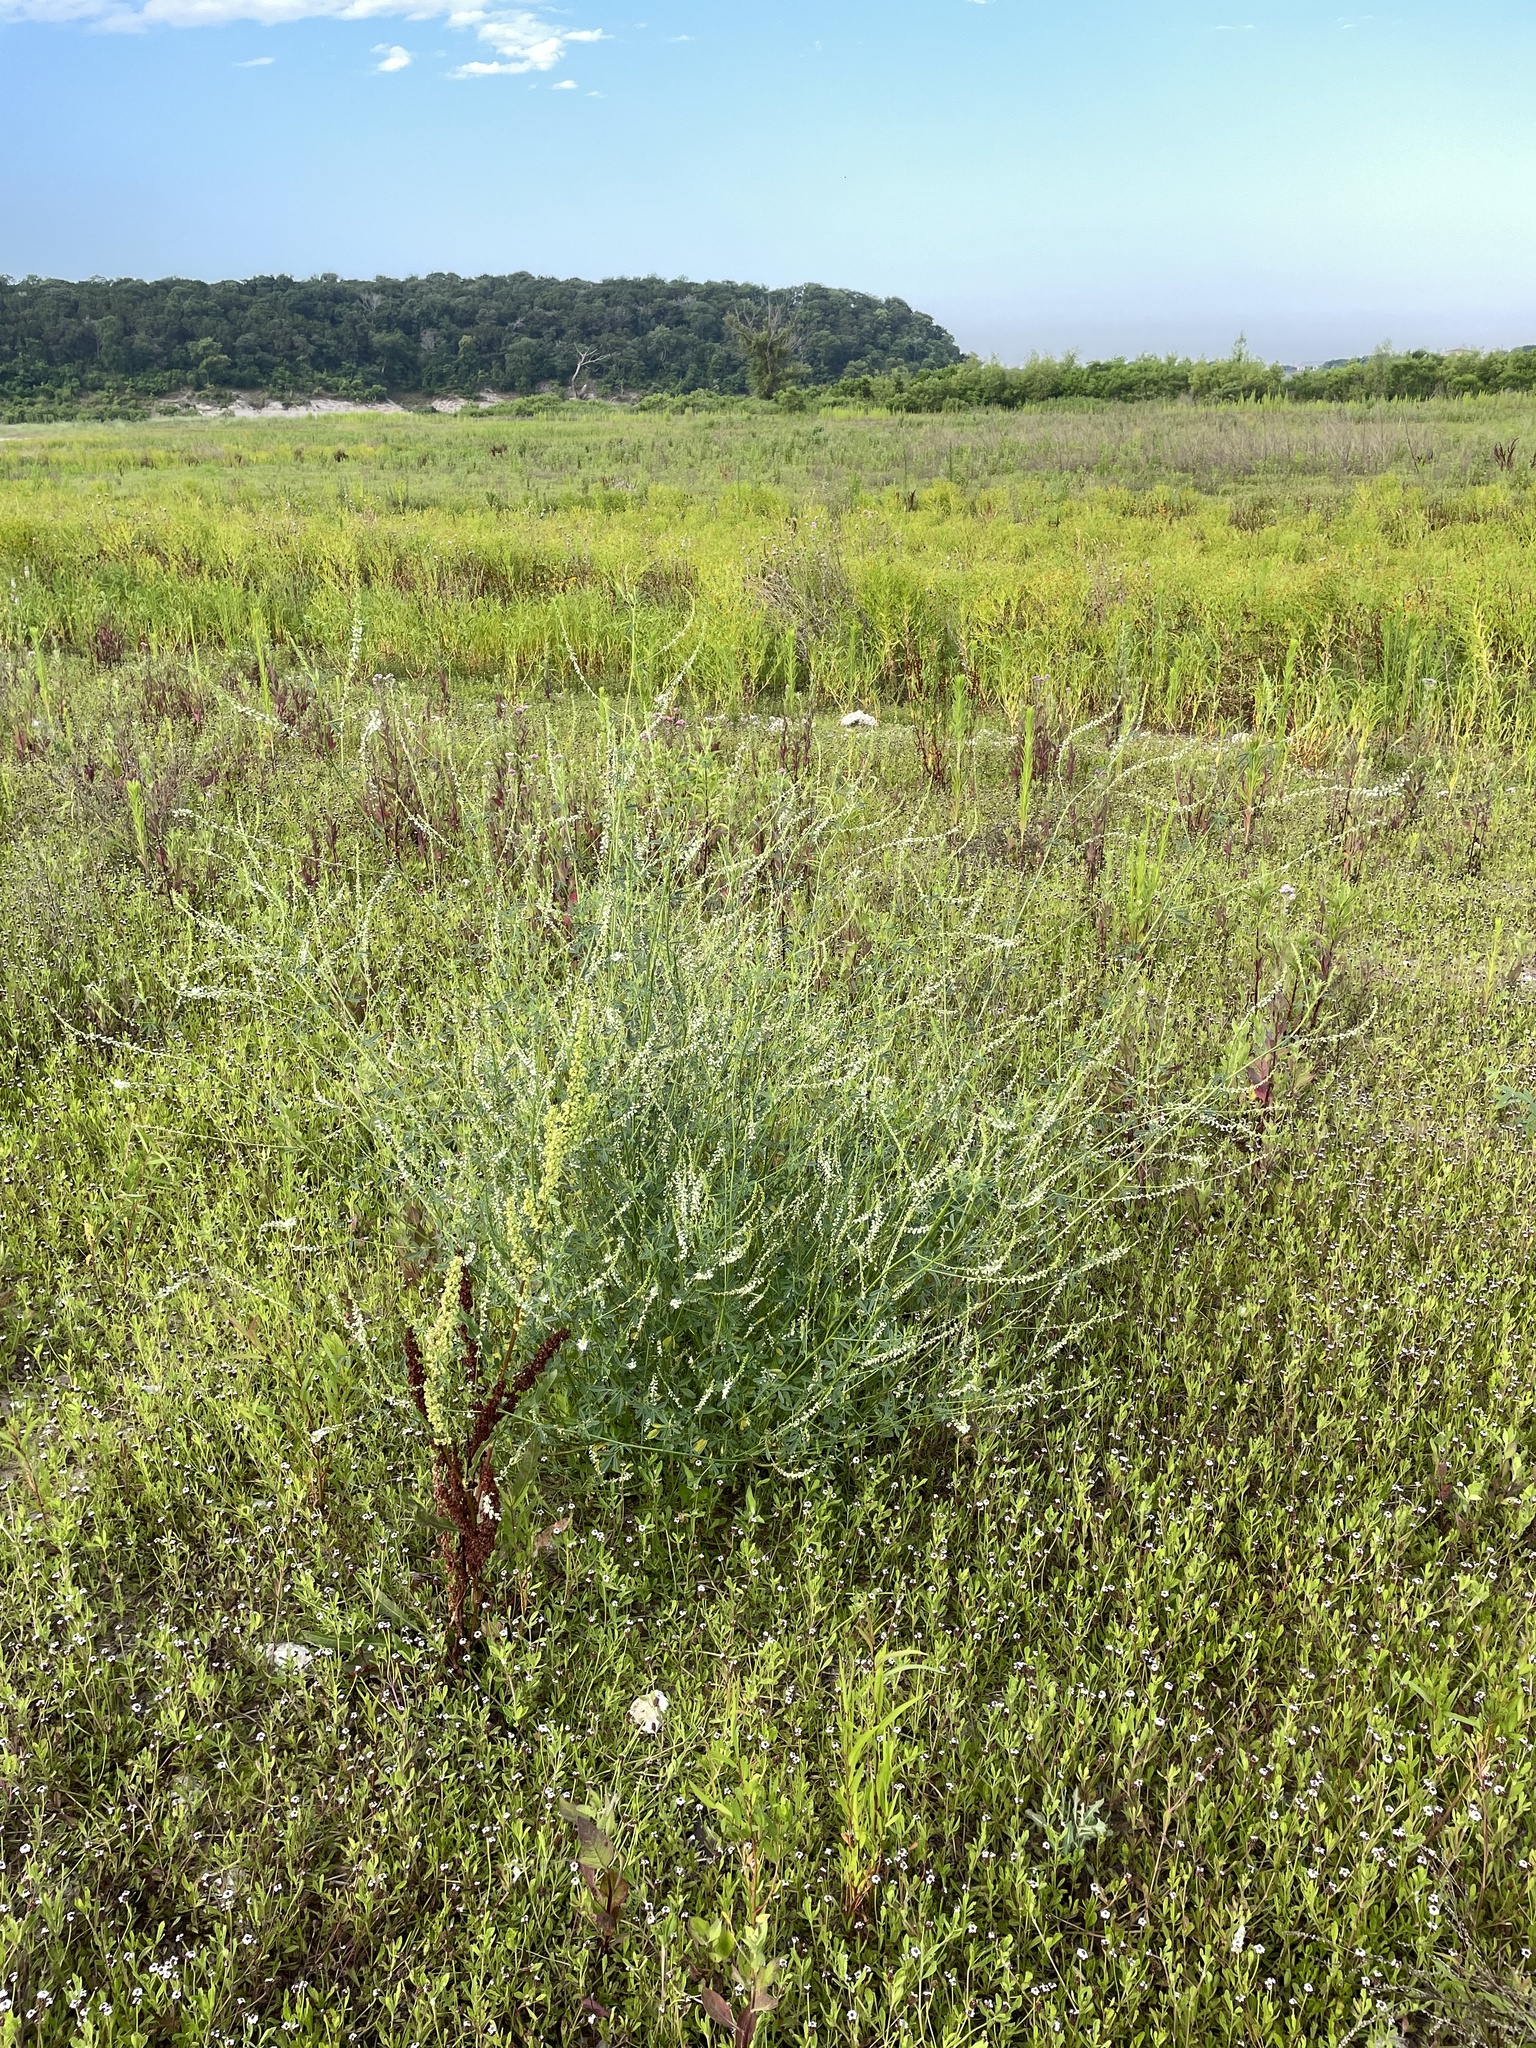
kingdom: Plantae
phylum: Tracheophyta
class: Magnoliopsida
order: Fabales
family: Fabaceae
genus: Melilotus
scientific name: Melilotus albus
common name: White melilot
